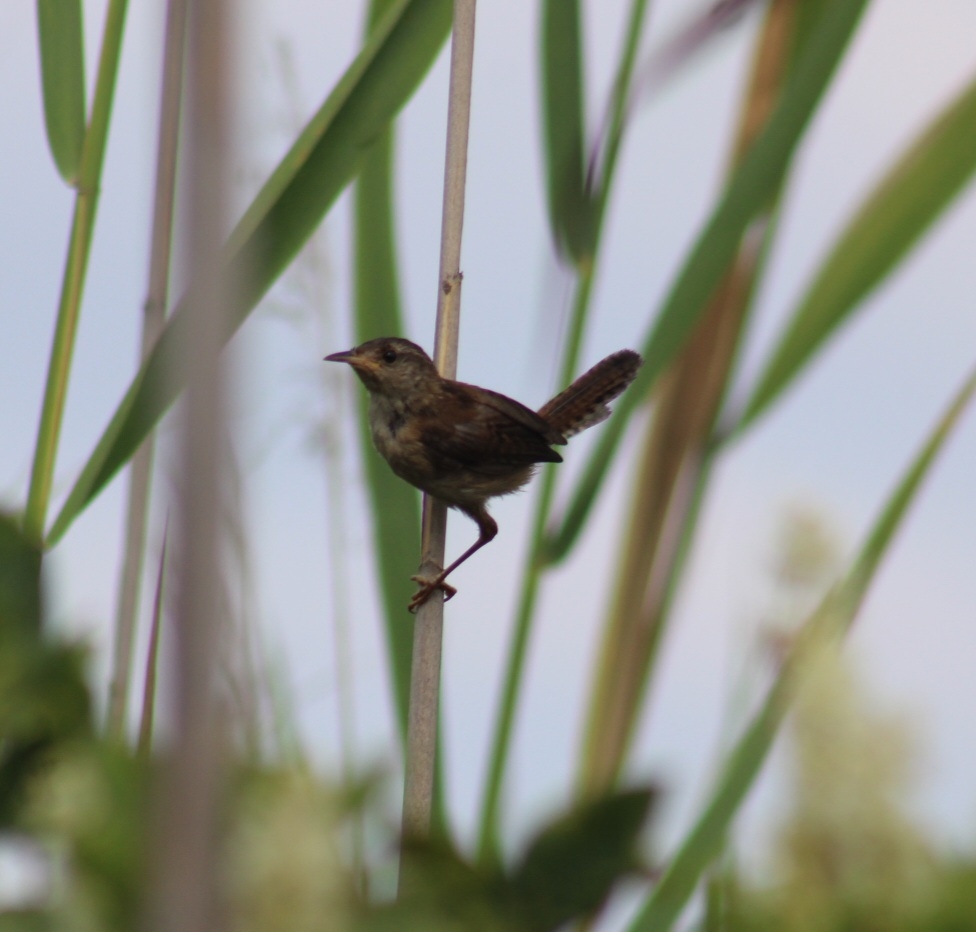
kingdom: Animalia
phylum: Chordata
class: Aves
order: Passeriformes
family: Troglodytidae
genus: Cistothorus
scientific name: Cistothorus palustris
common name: Marsh wren
